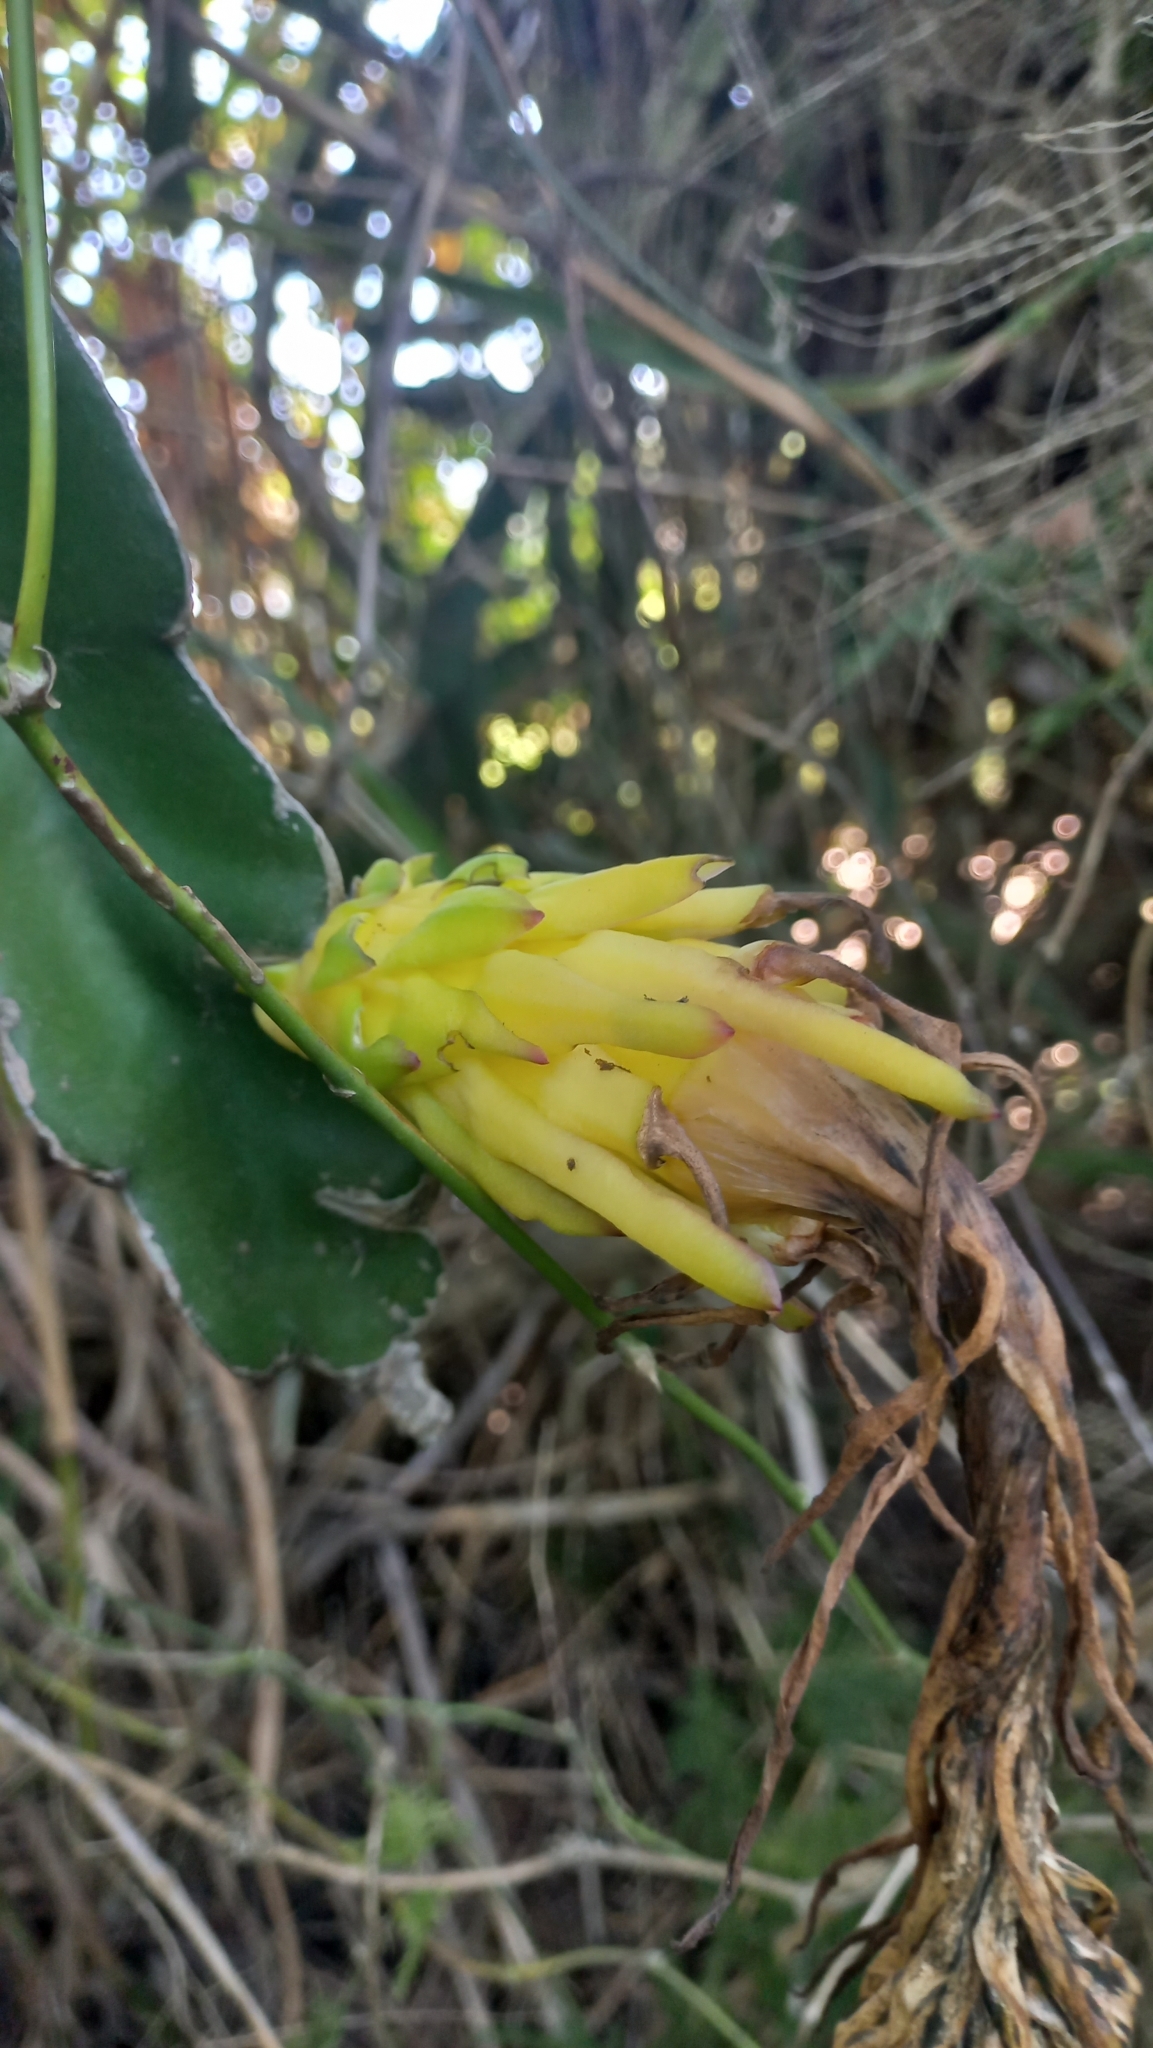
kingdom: Plantae
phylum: Tracheophyta
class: Magnoliopsida
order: Caryophyllales
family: Cactaceae
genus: Selenicereus
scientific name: Selenicereus undatus
